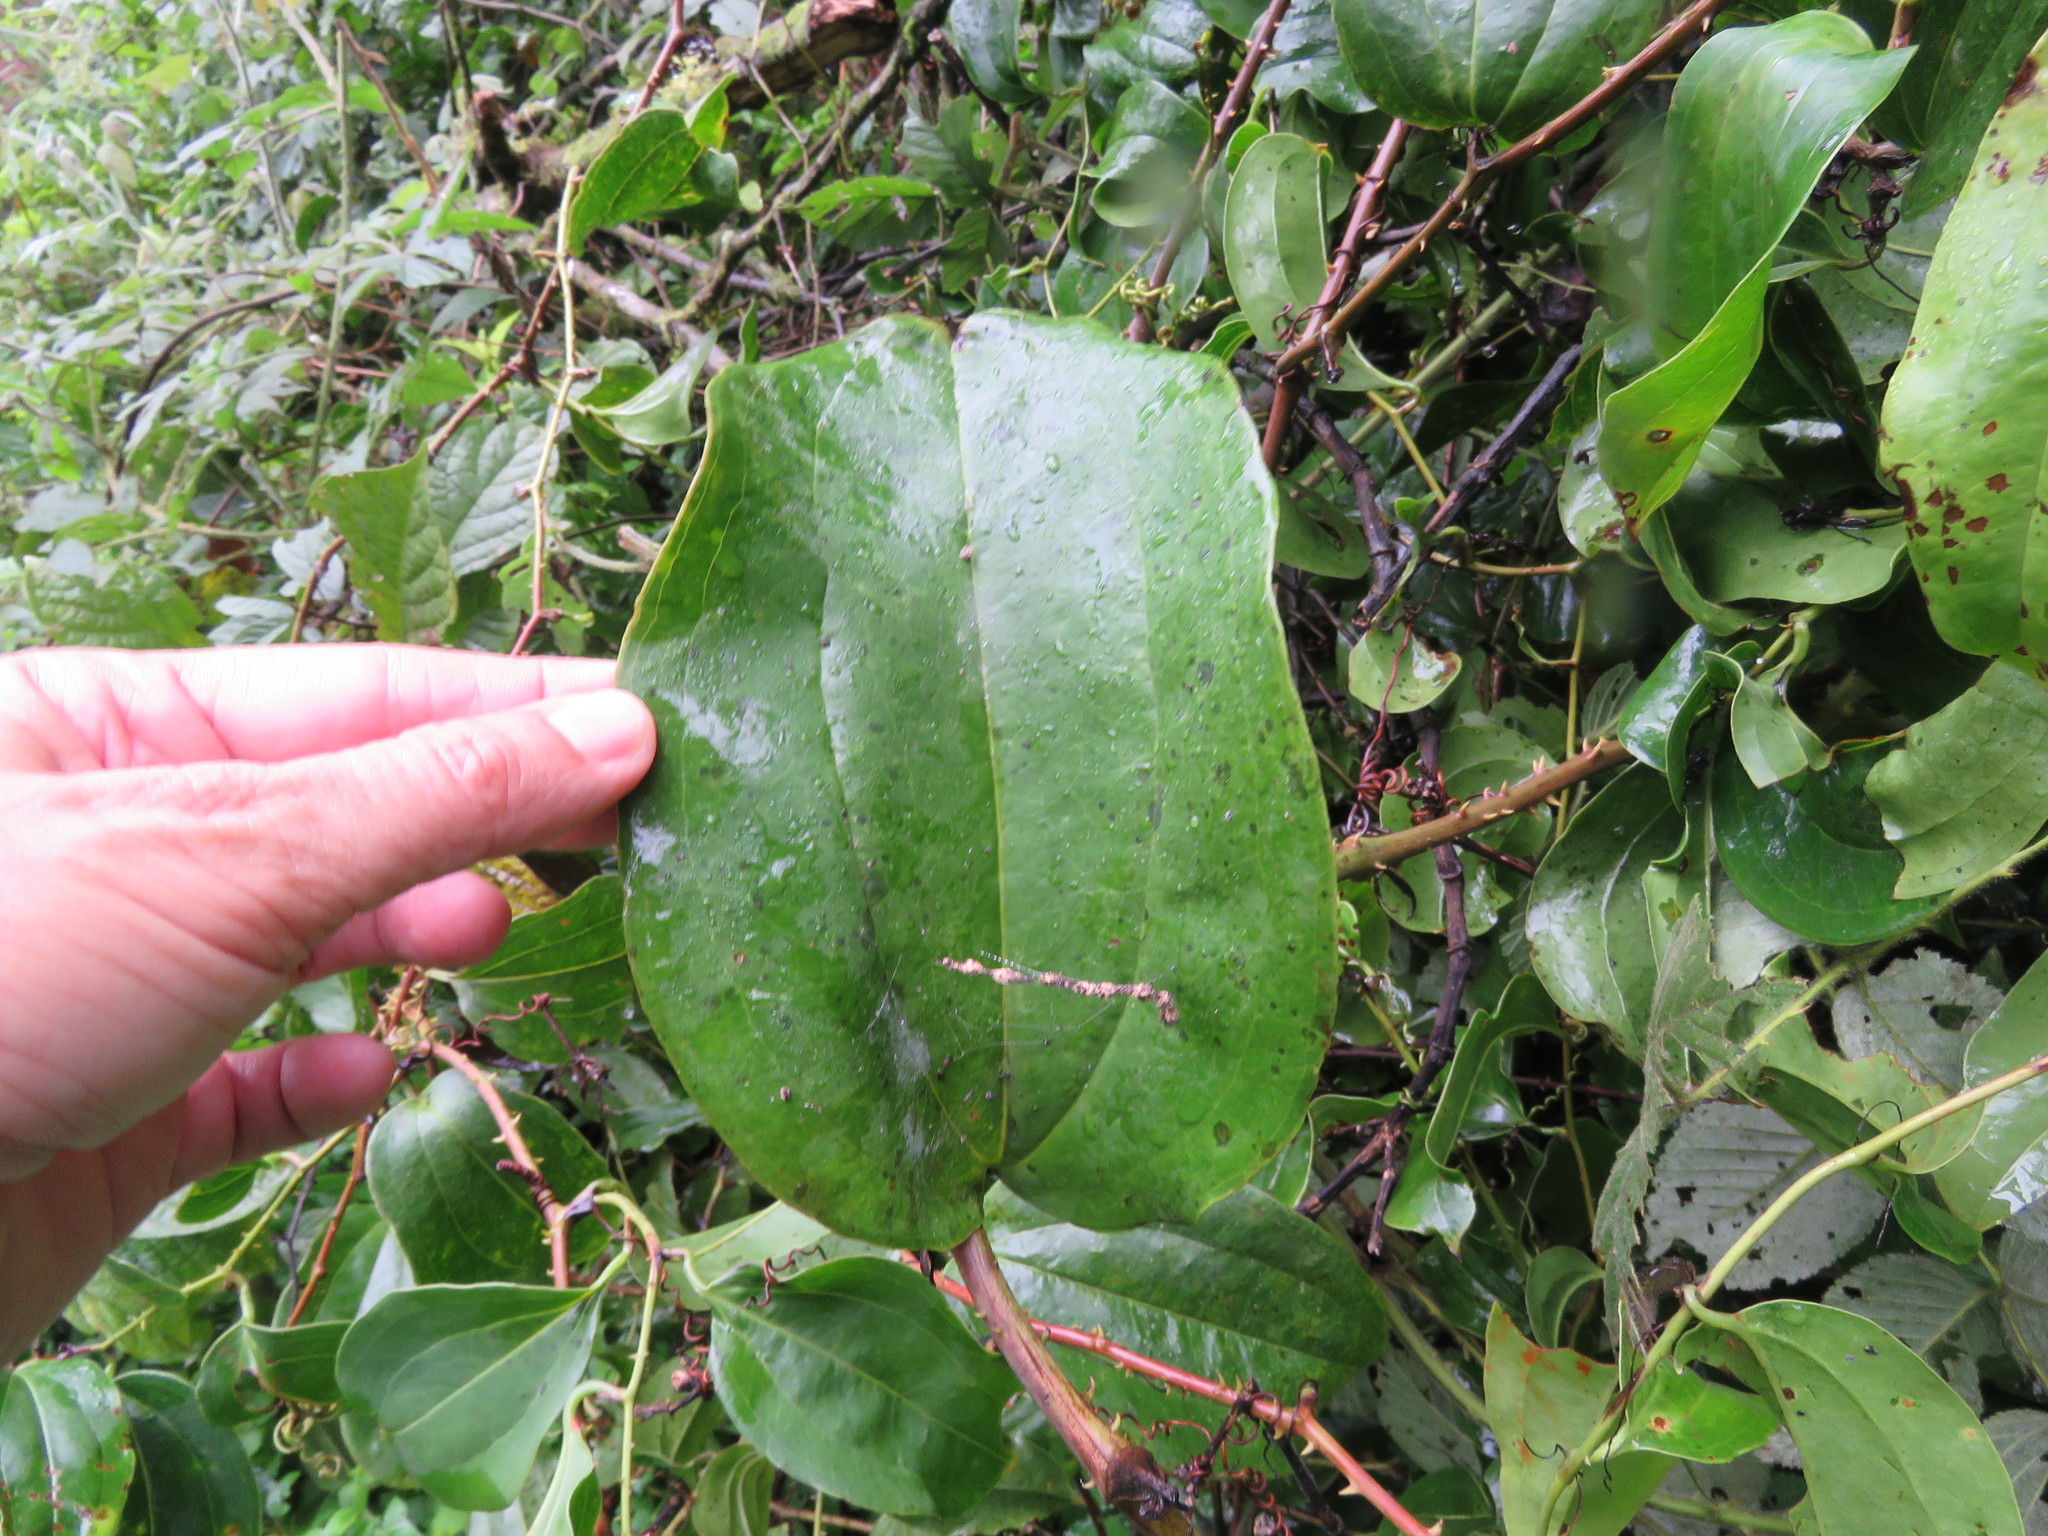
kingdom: Plantae
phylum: Tracheophyta
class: Liliopsida
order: Liliales
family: Smilacaceae
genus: Smilax
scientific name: Smilax anceps
